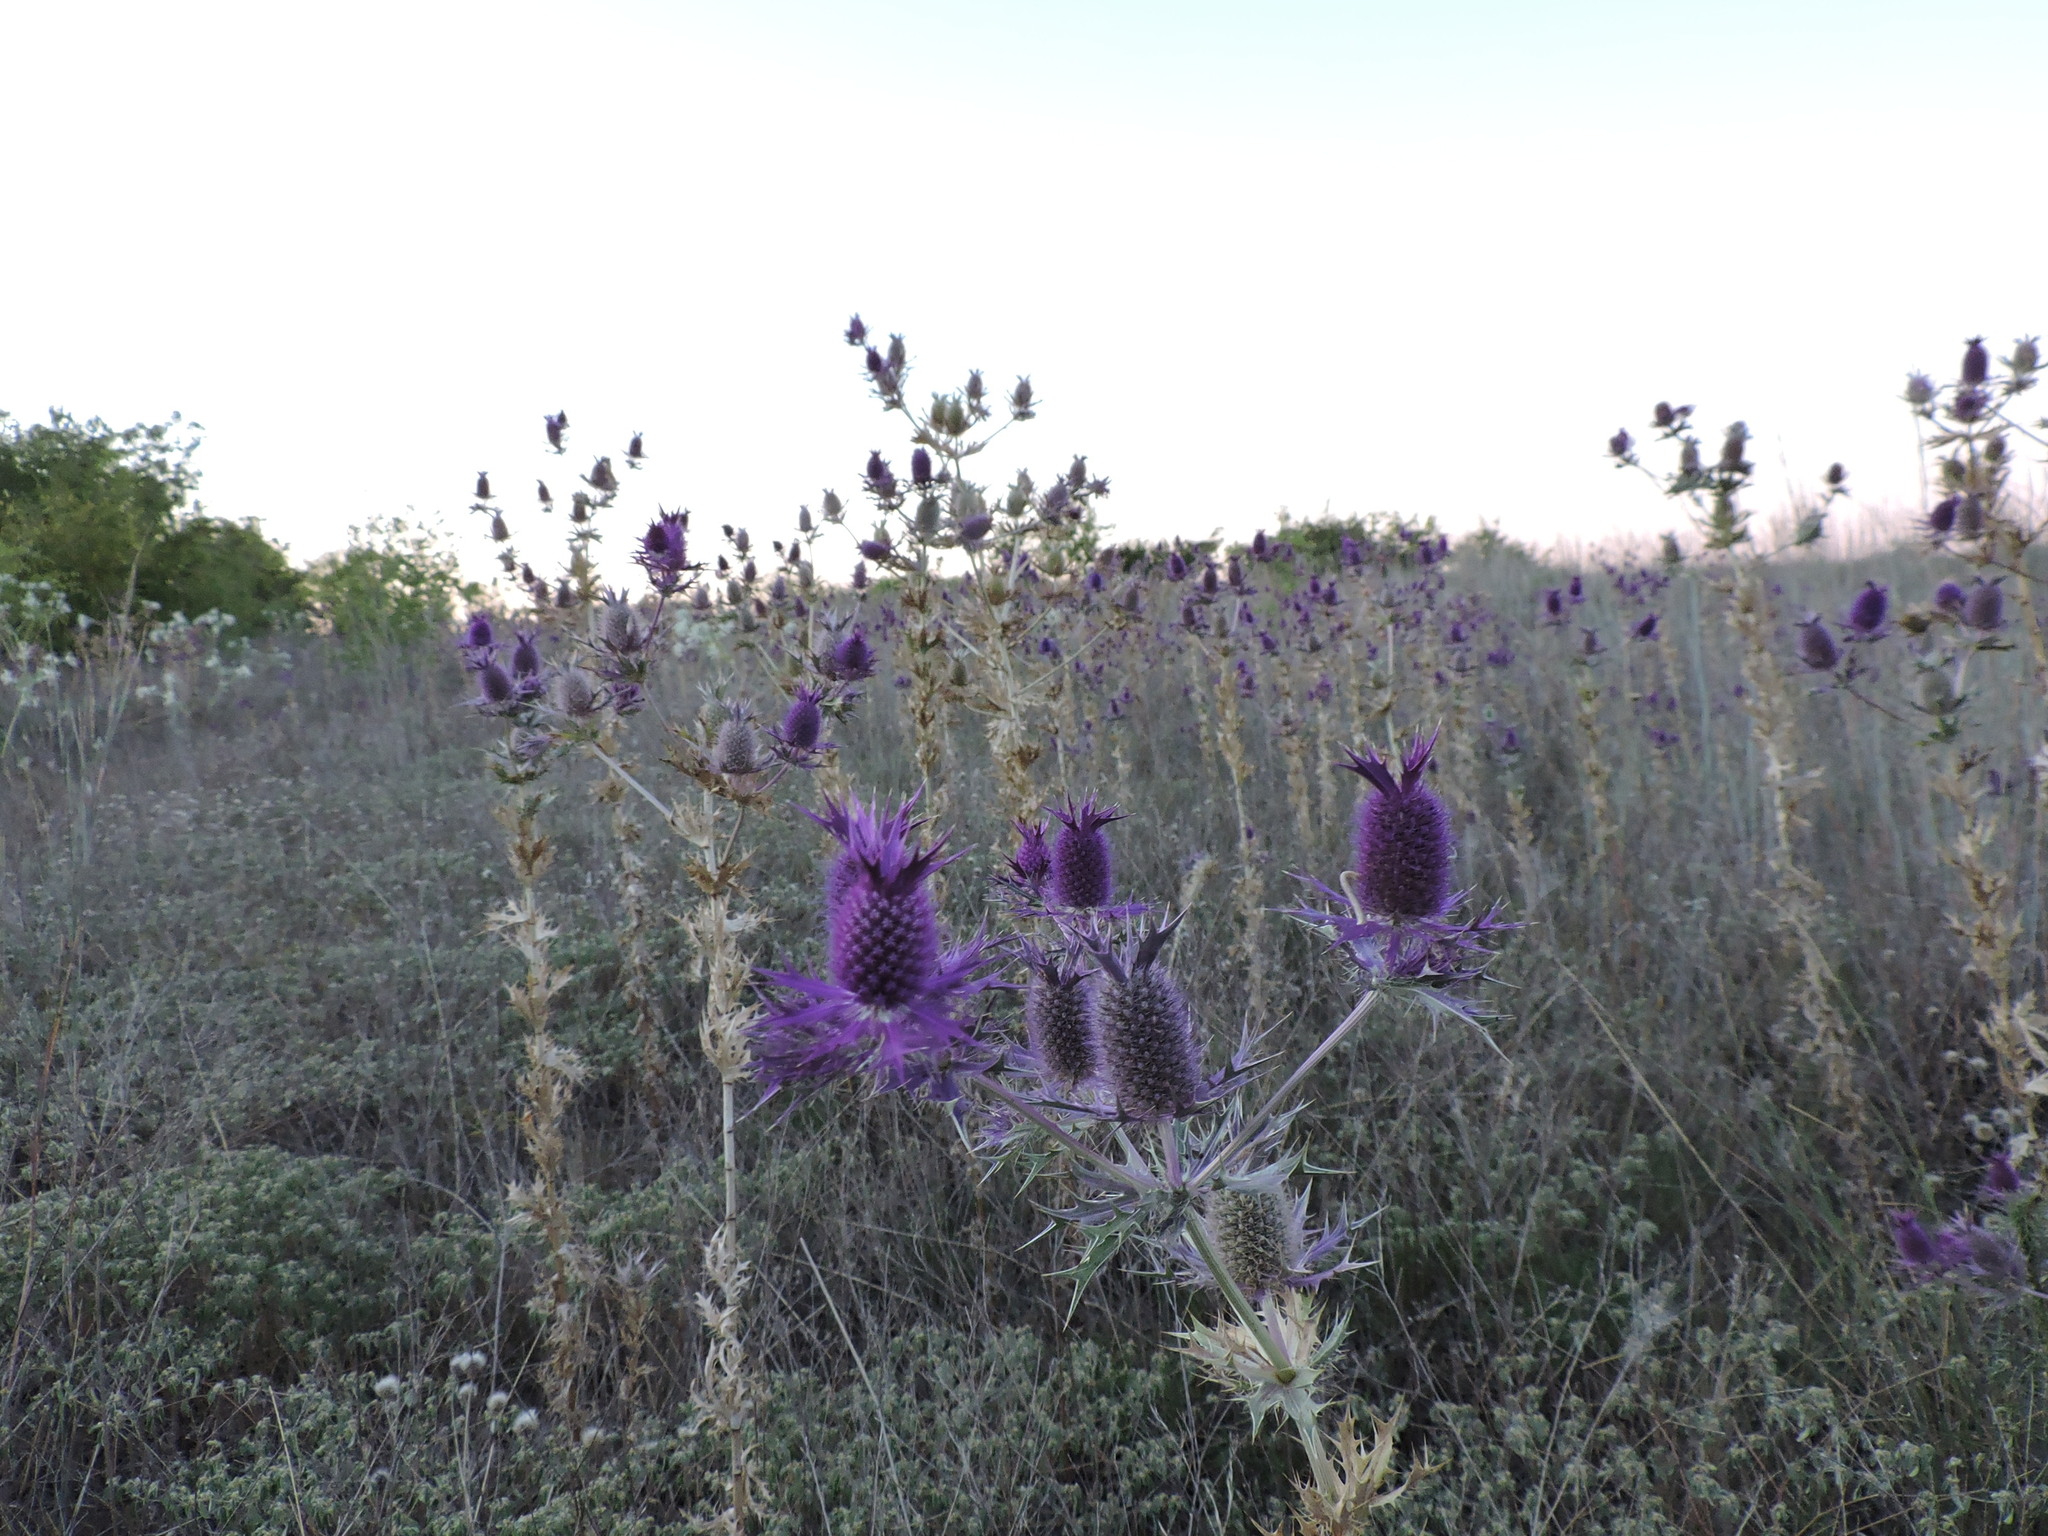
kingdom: Plantae
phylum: Tracheophyta
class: Magnoliopsida
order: Apiales
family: Apiaceae
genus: Eryngium
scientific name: Eryngium leavenworthii
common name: Leavenworth's eryngo
